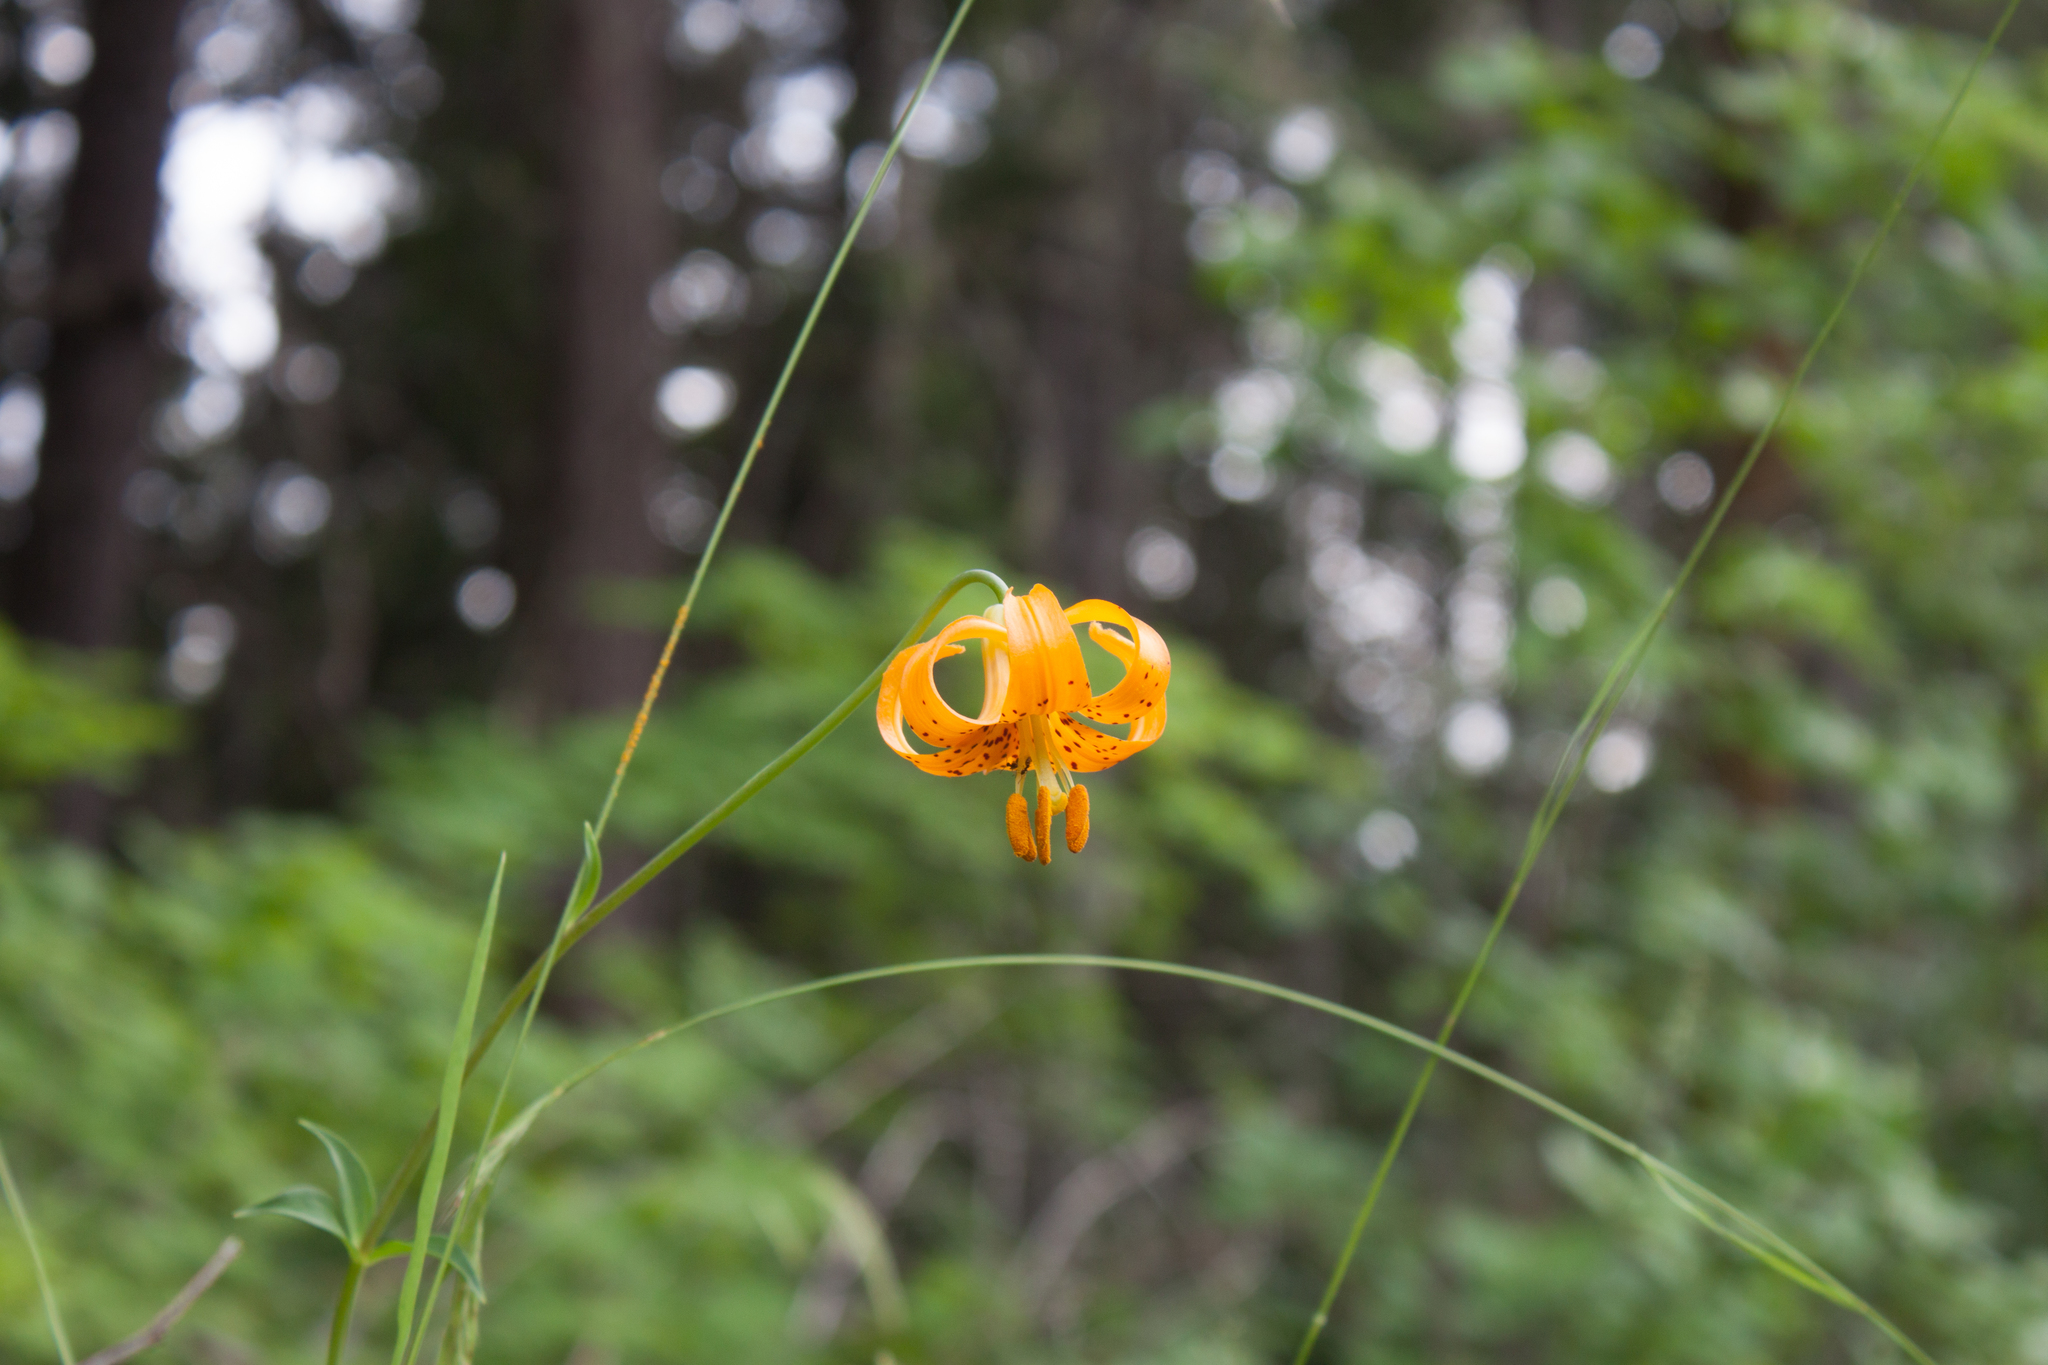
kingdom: Plantae
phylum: Tracheophyta
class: Liliopsida
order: Liliales
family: Liliaceae
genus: Lilium
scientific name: Lilium columbianum
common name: Columbia lily
